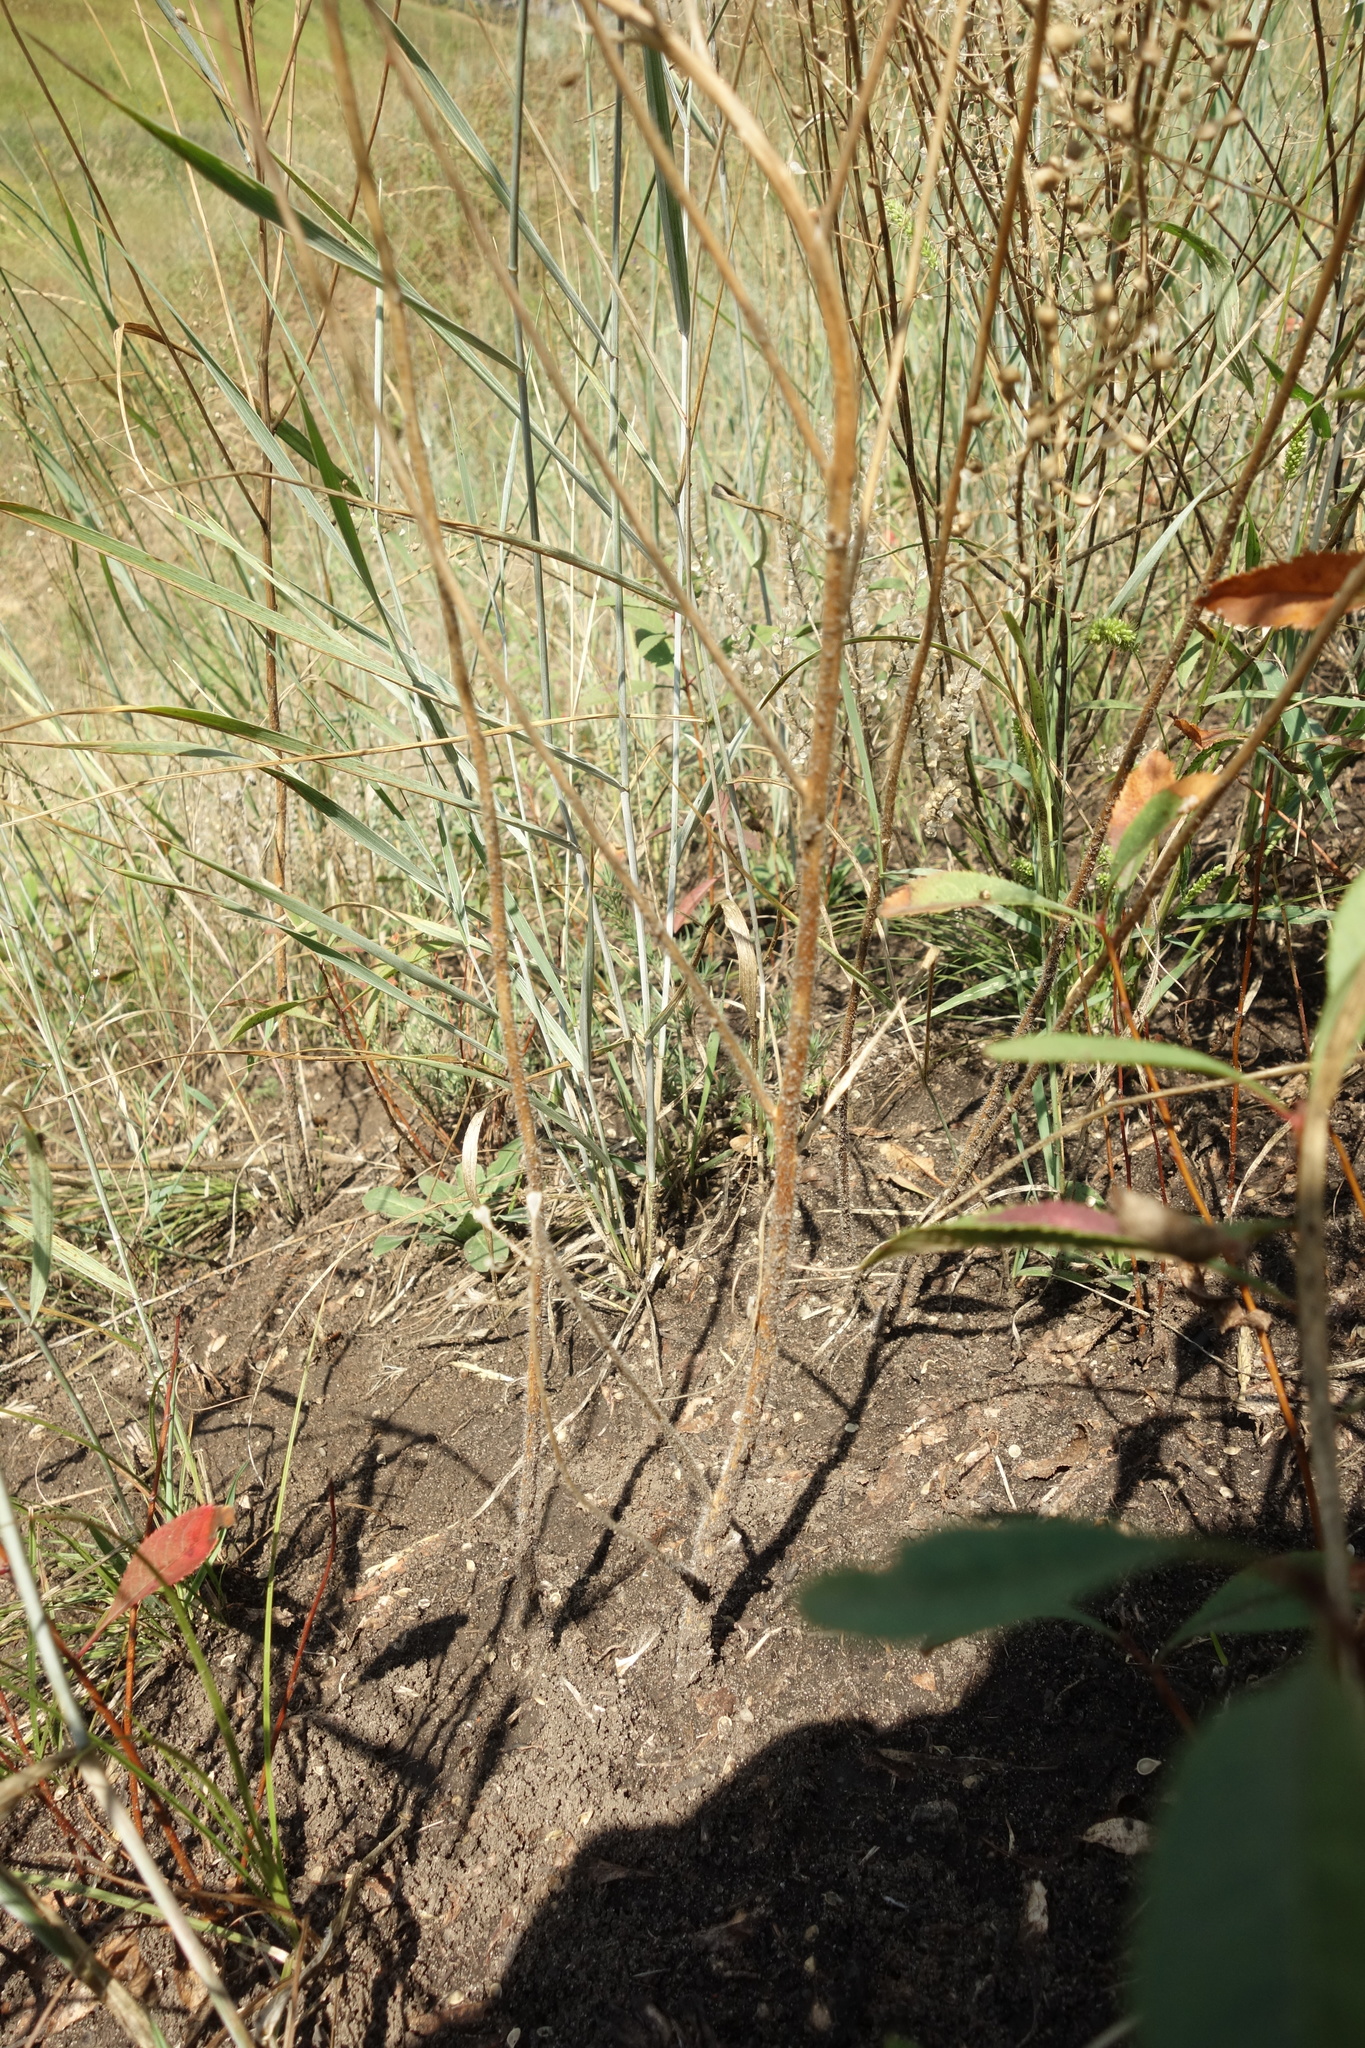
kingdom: Plantae
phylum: Tracheophyta
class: Magnoliopsida
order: Brassicales
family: Brassicaceae
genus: Camelina
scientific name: Camelina microcarpa
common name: Lesser gold-of-pleasure
